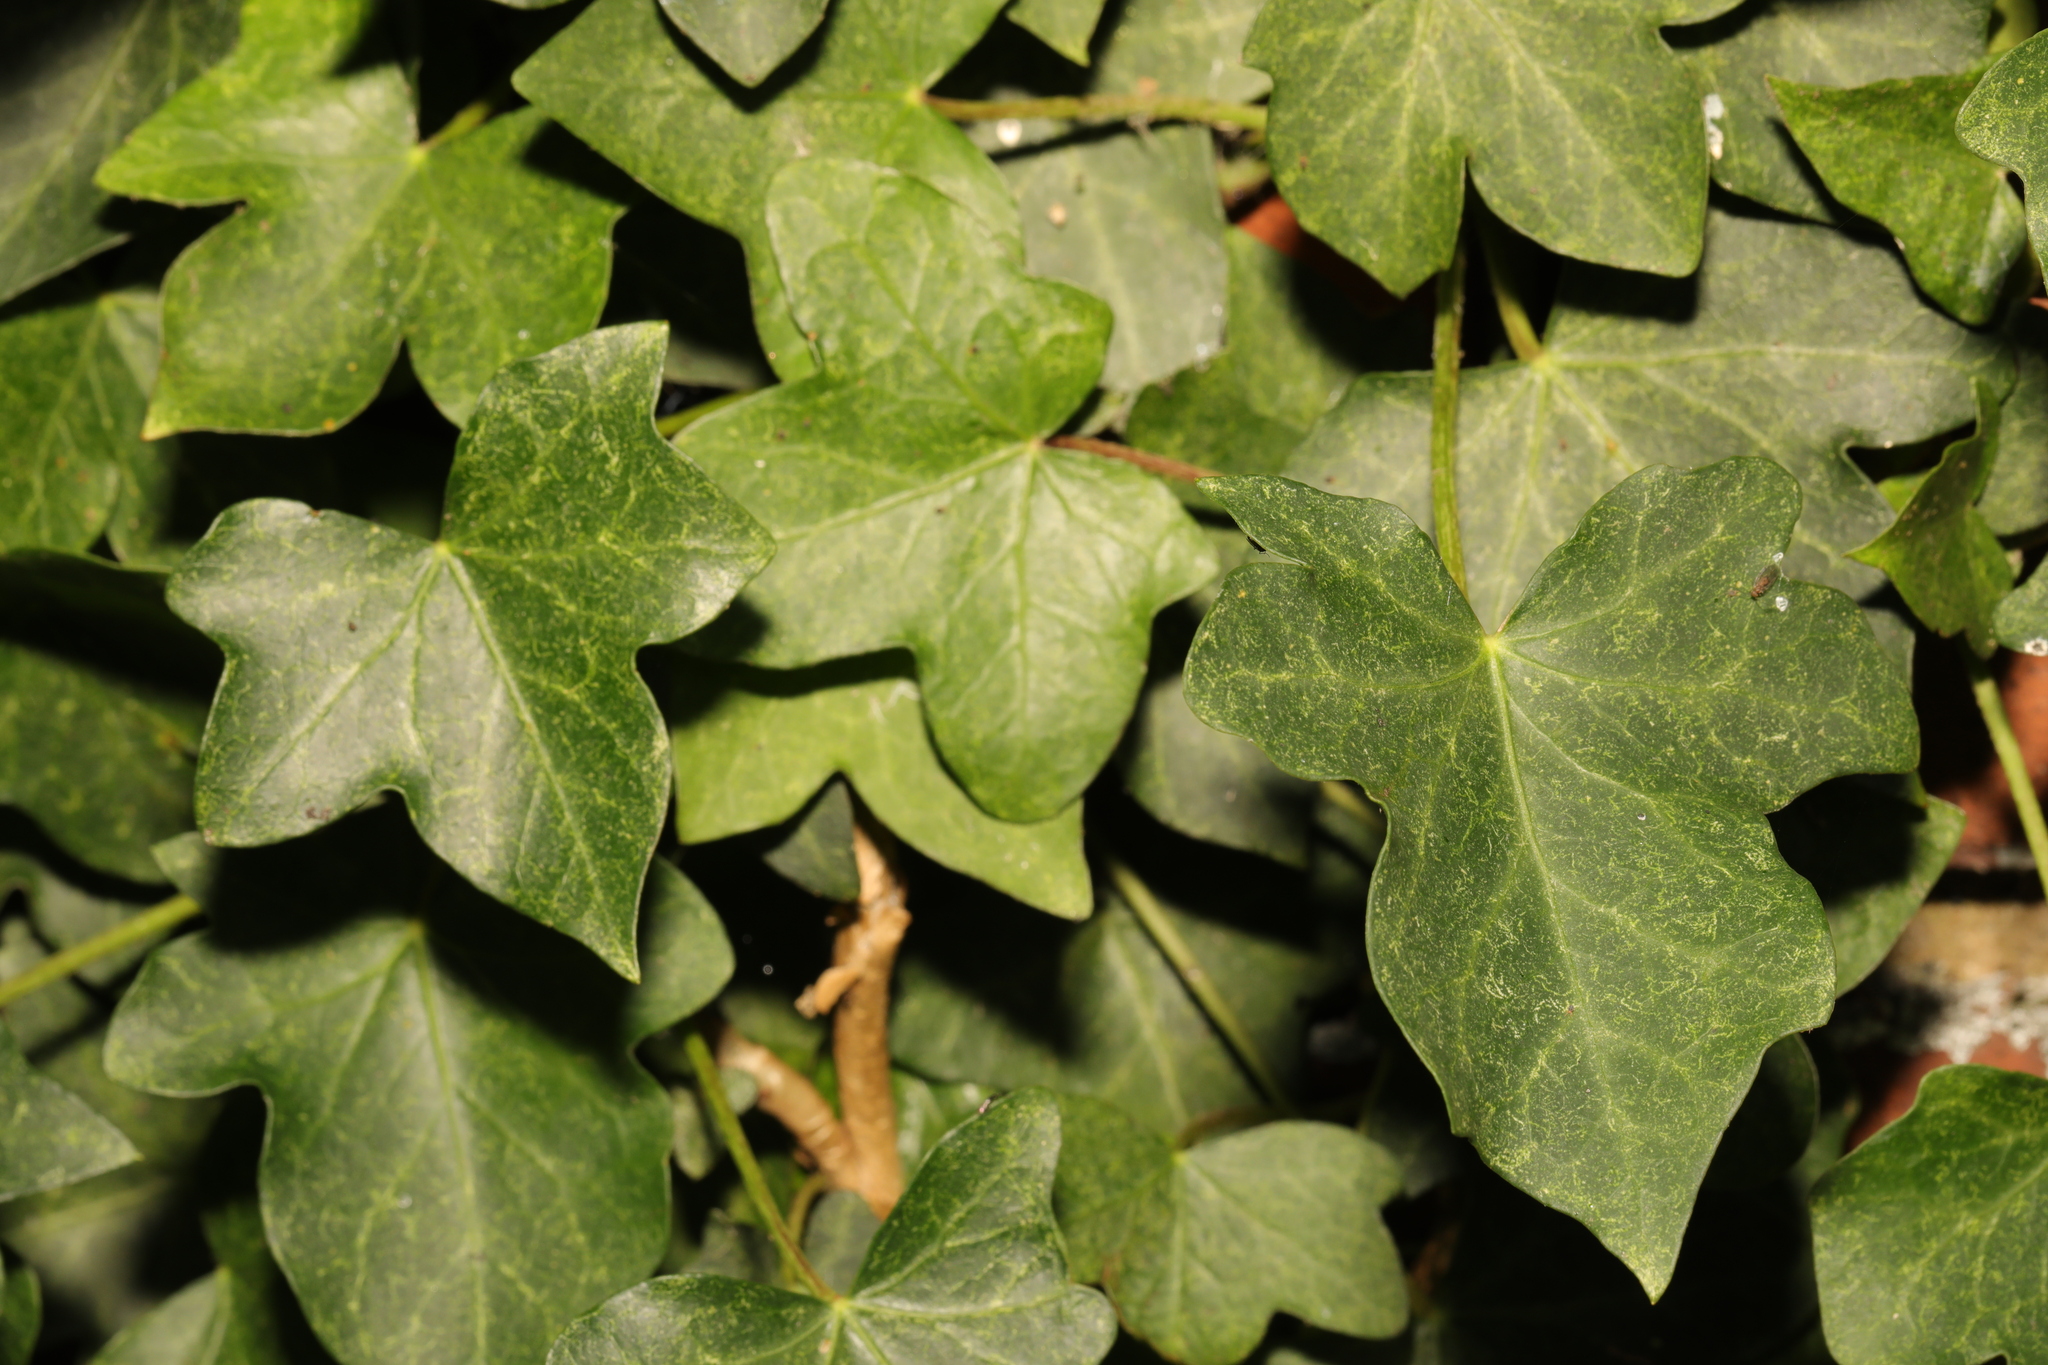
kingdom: Plantae
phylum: Tracheophyta
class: Magnoliopsida
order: Apiales
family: Araliaceae
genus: Hedera
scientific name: Hedera helix
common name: Ivy
